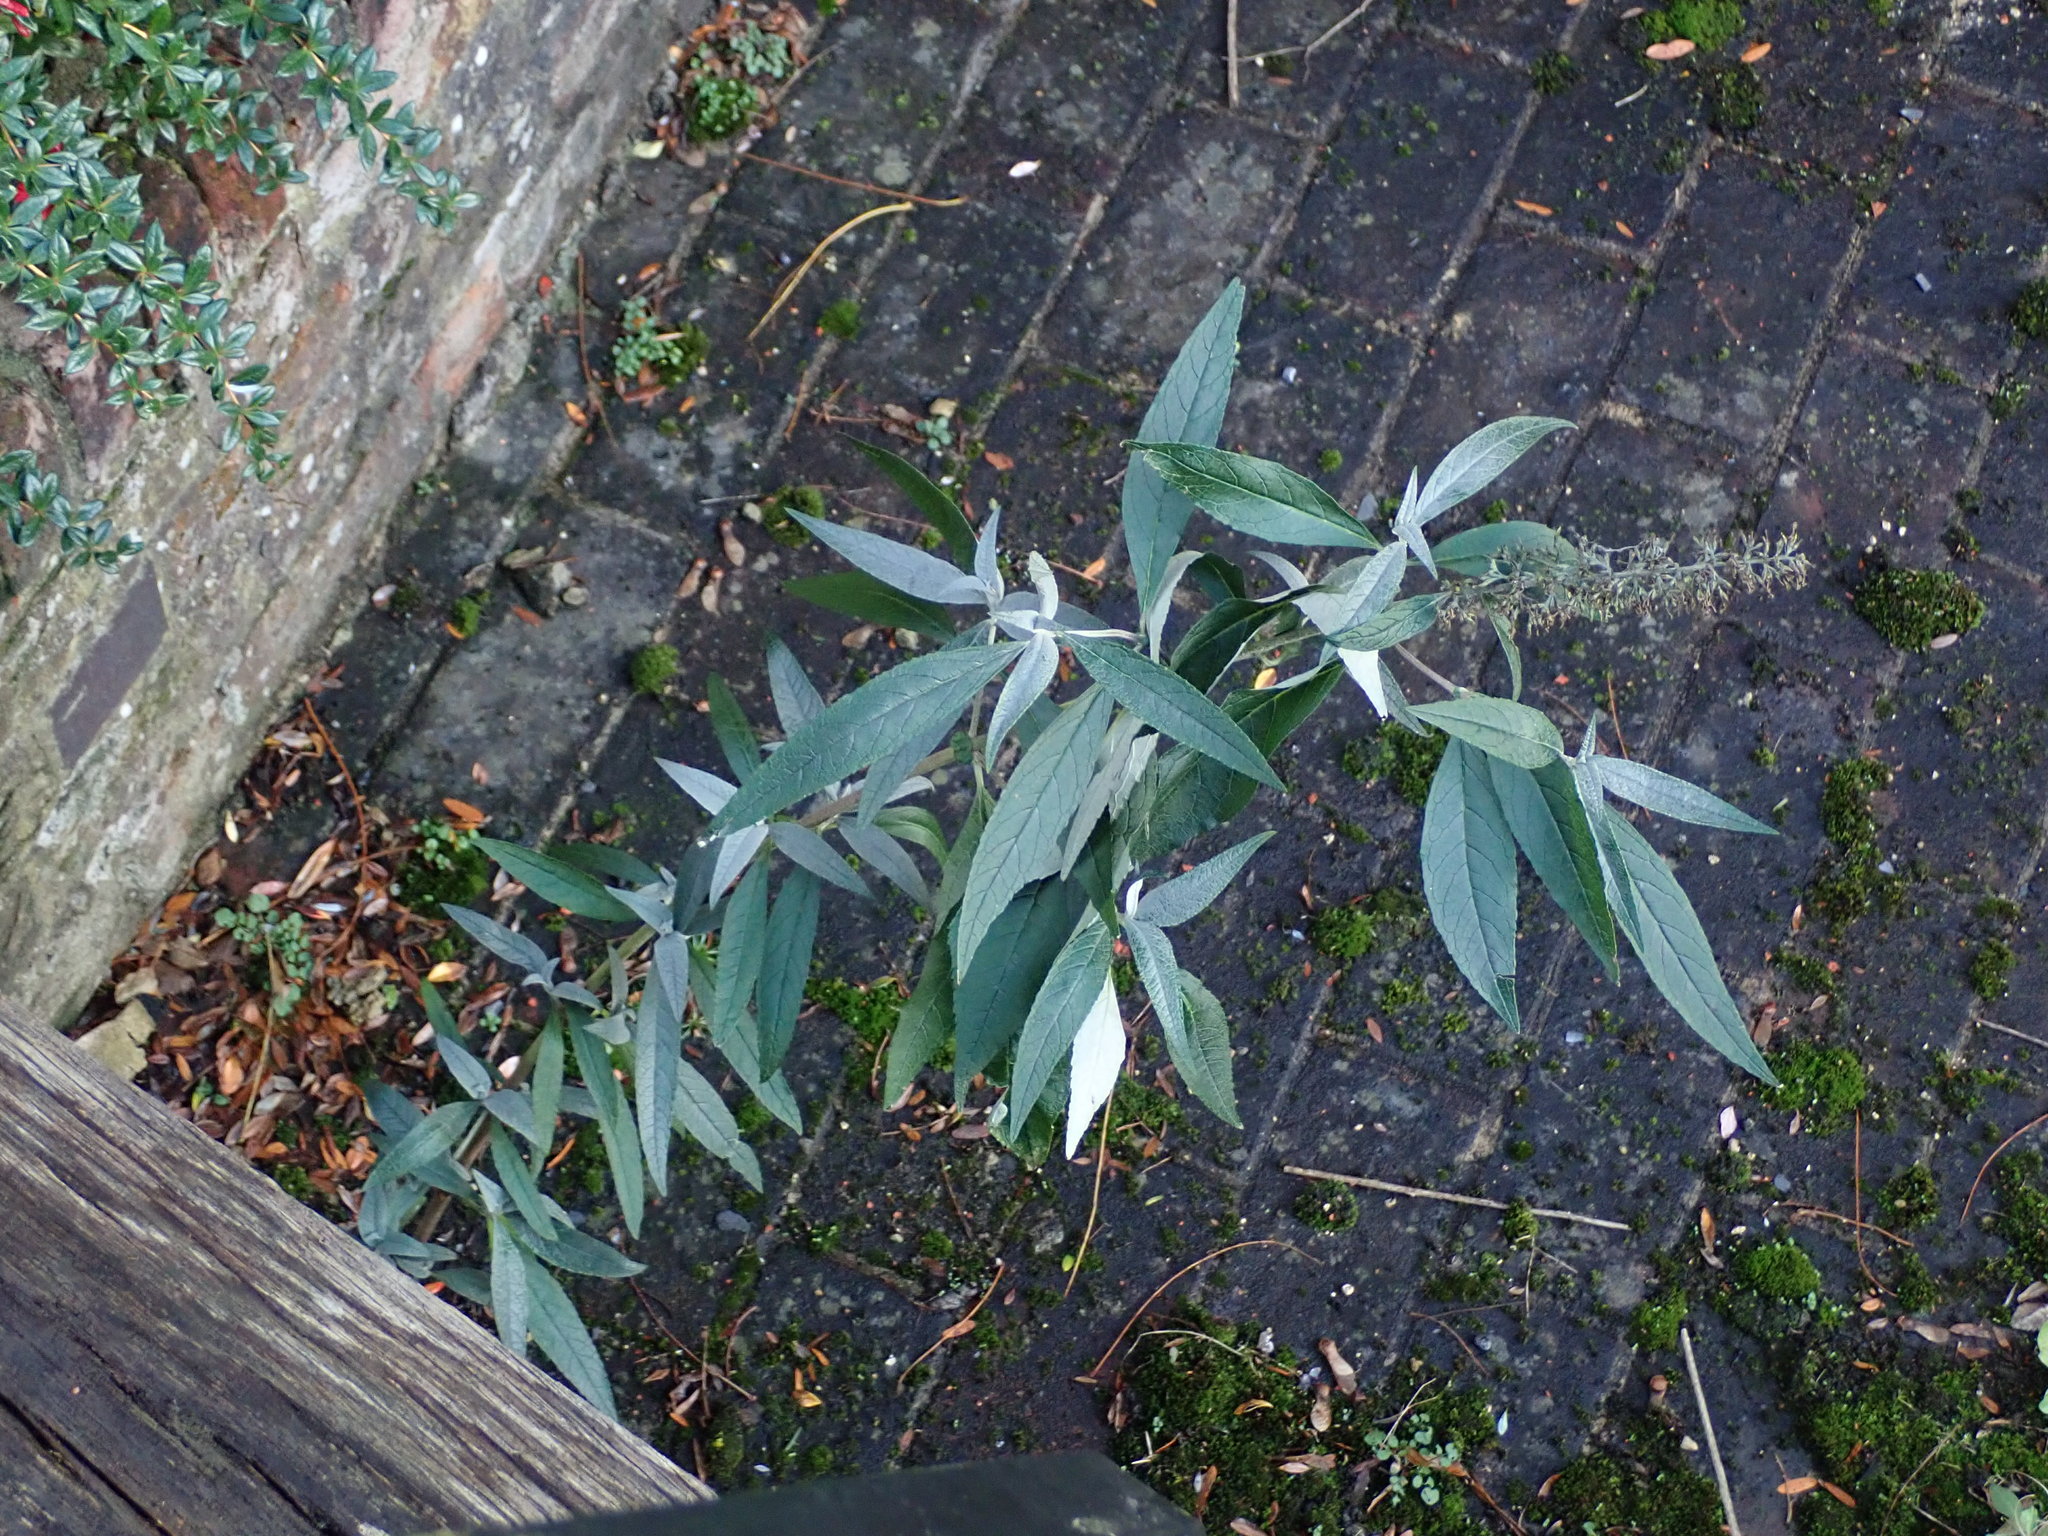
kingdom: Plantae
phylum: Tracheophyta
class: Magnoliopsida
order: Lamiales
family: Scrophulariaceae
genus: Buddleja
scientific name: Buddleja davidii
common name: Butterfly-bush
